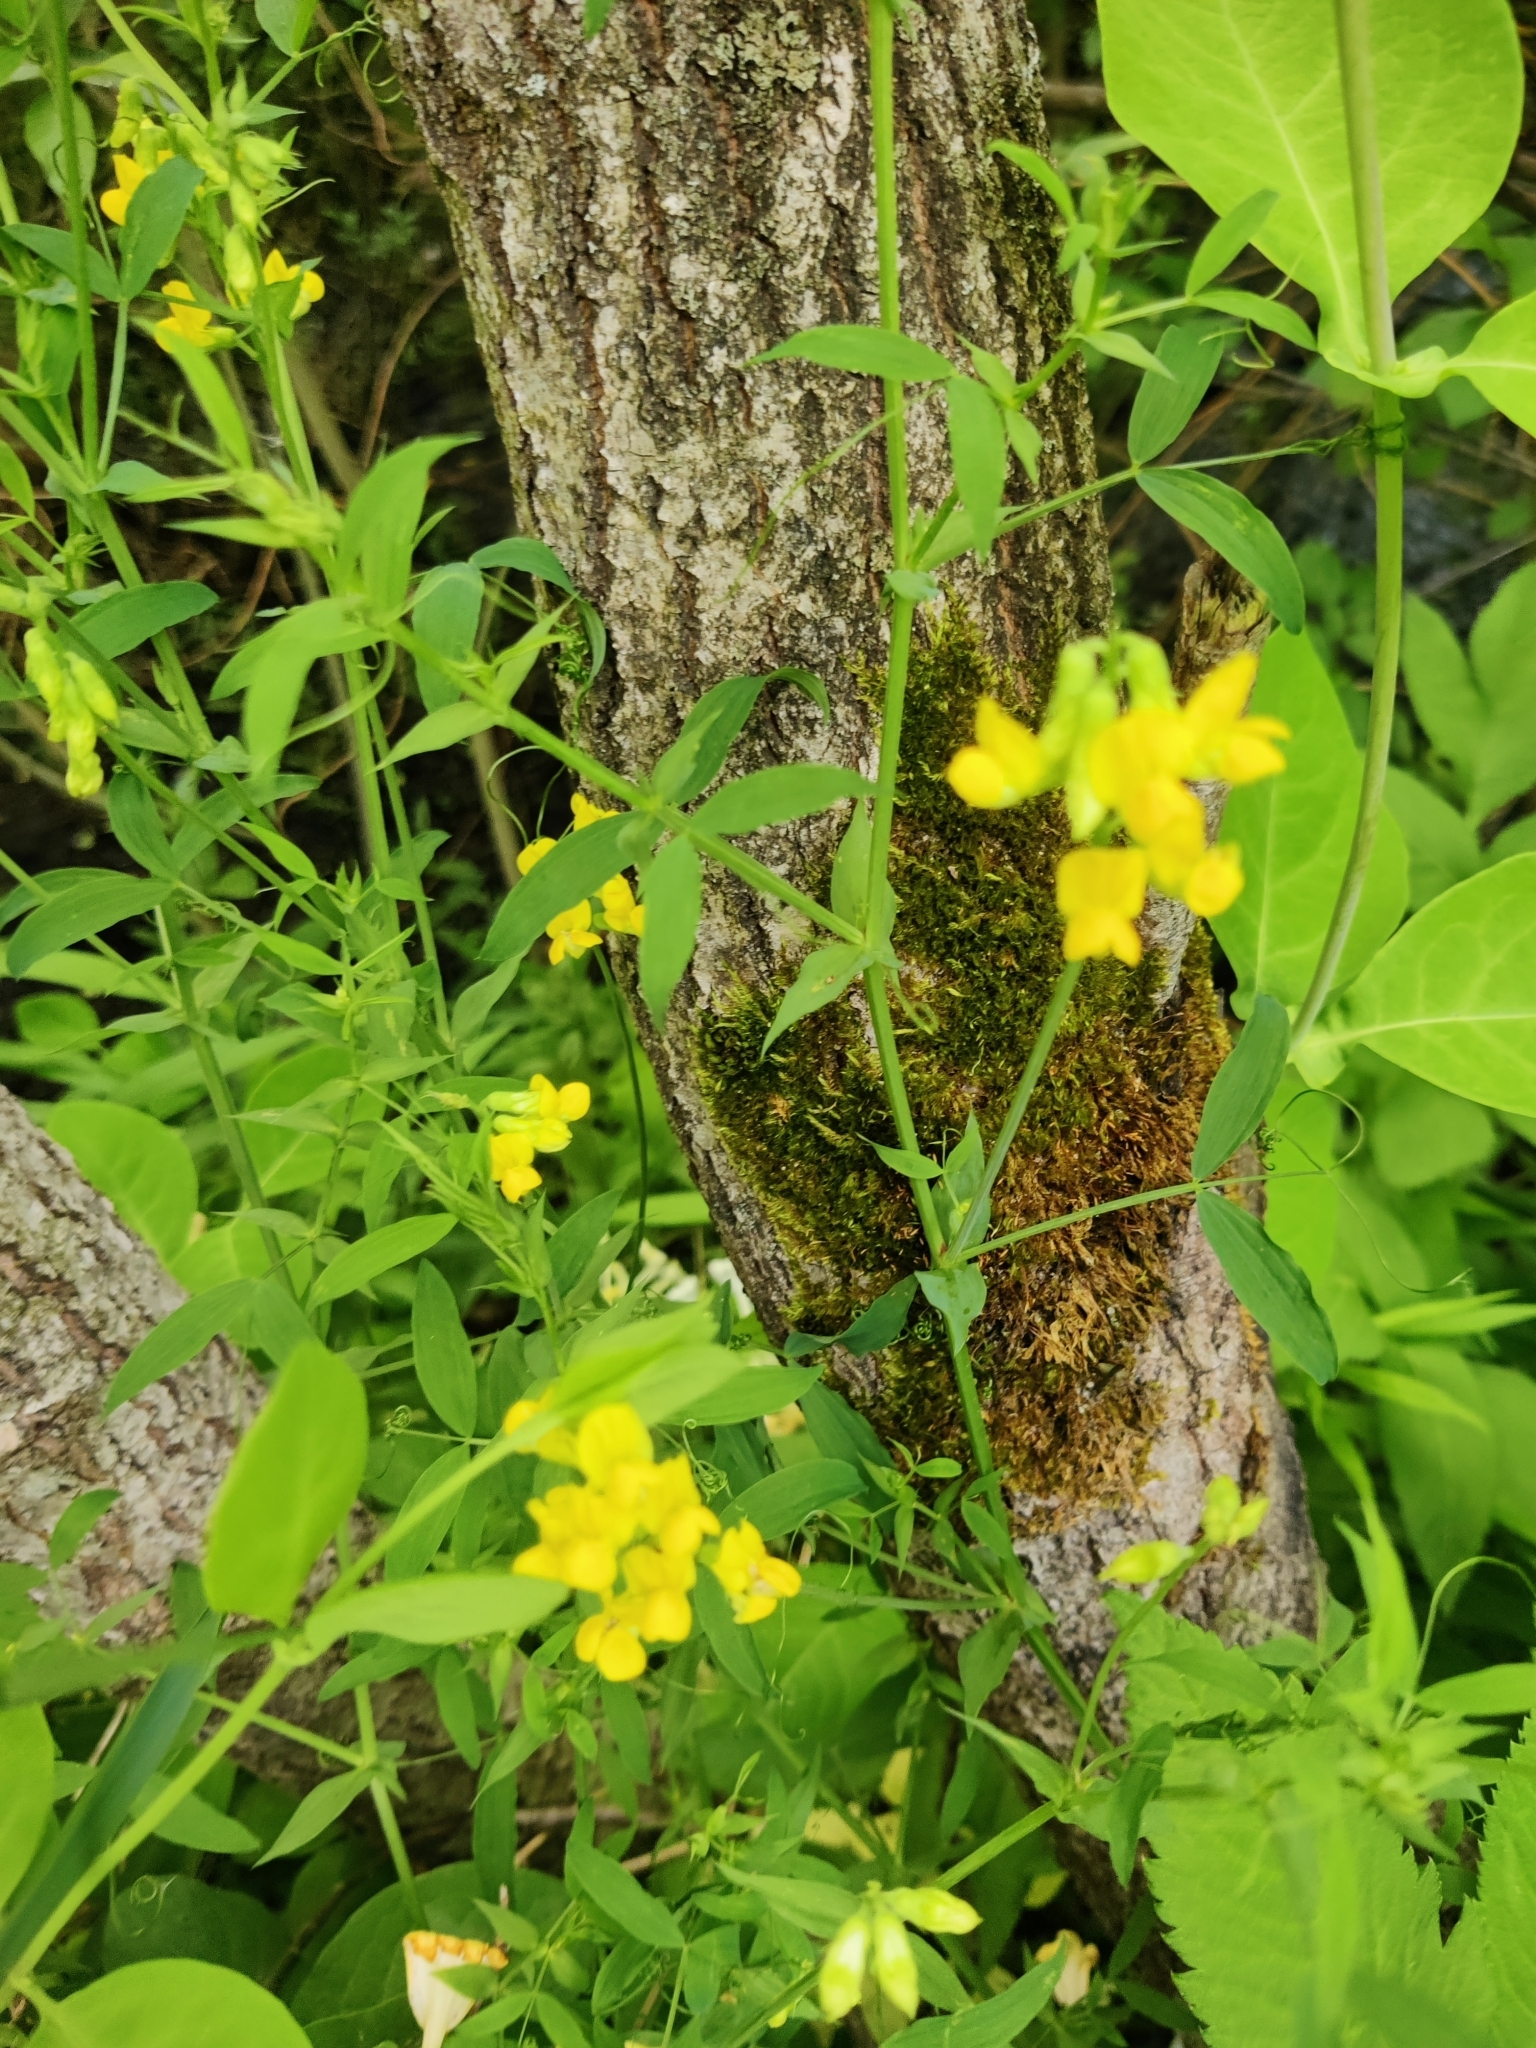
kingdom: Plantae
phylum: Tracheophyta
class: Magnoliopsida
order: Fabales
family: Fabaceae
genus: Lathyrus
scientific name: Lathyrus pratensis
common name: Meadow vetchling
